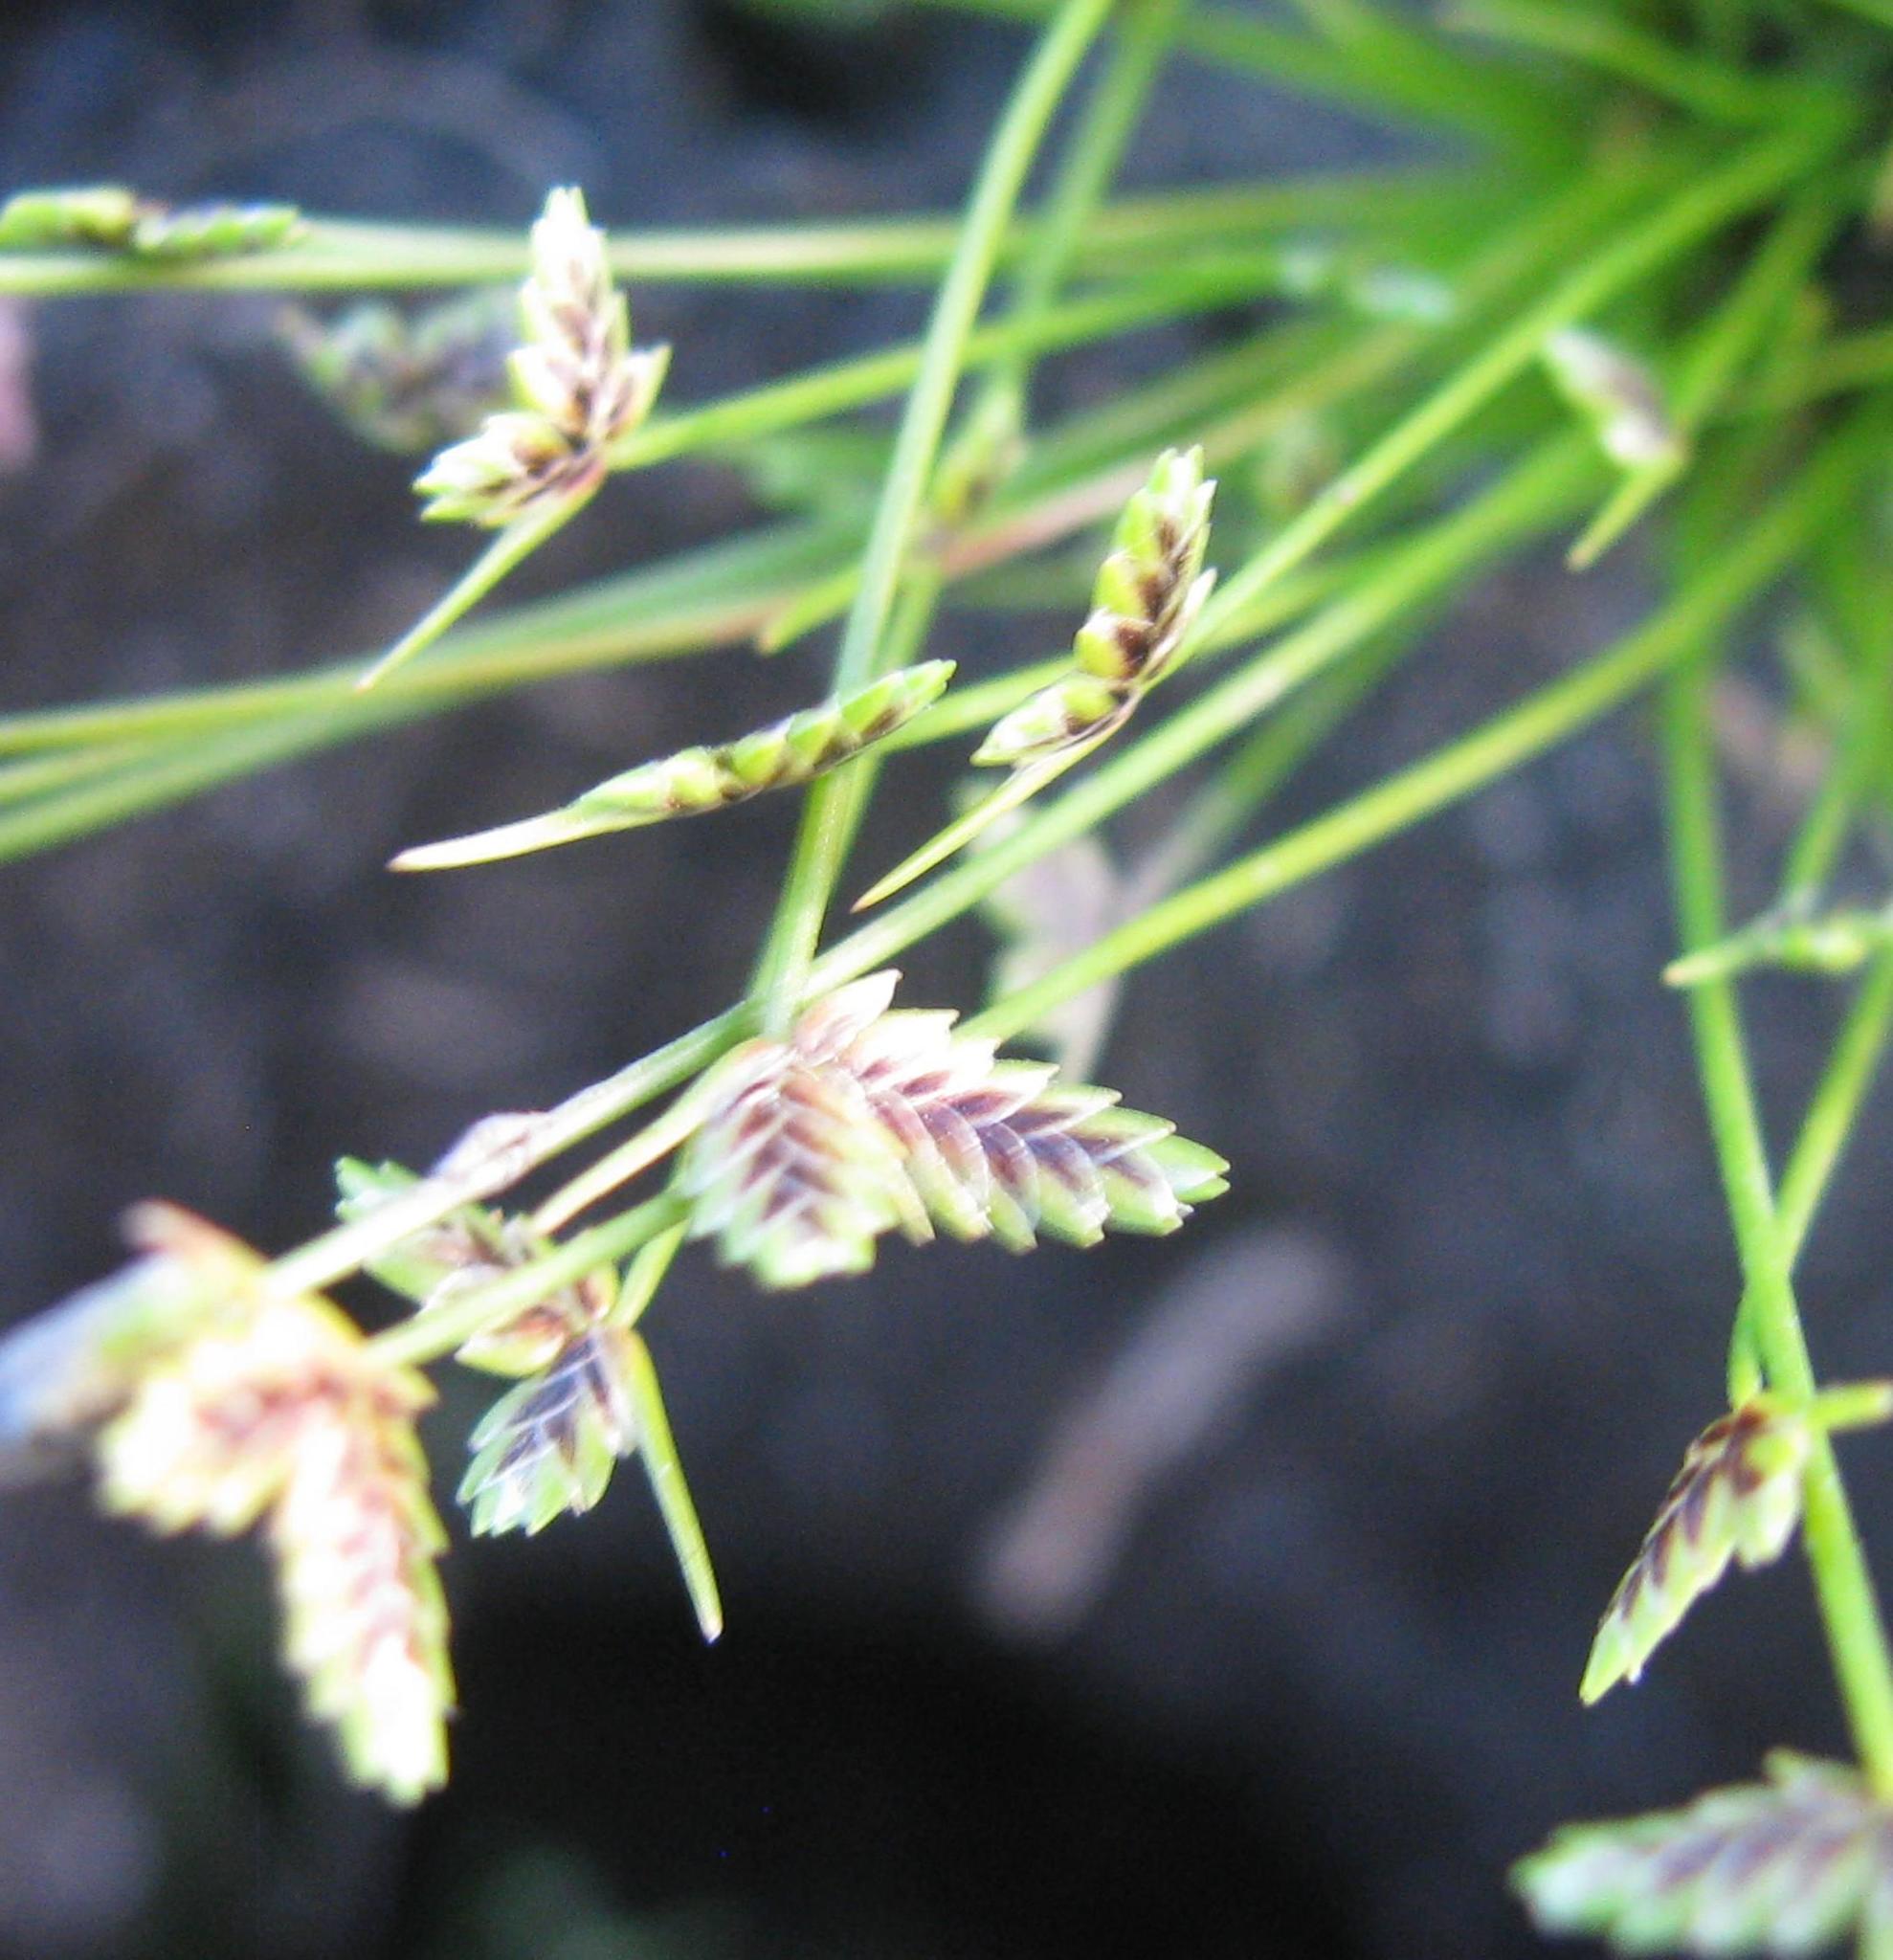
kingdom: Plantae
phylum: Tracheophyta
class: Liliopsida
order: Poales
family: Cyperaceae
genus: Isolepis
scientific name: Isolepis levynsiana
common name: Sedge
